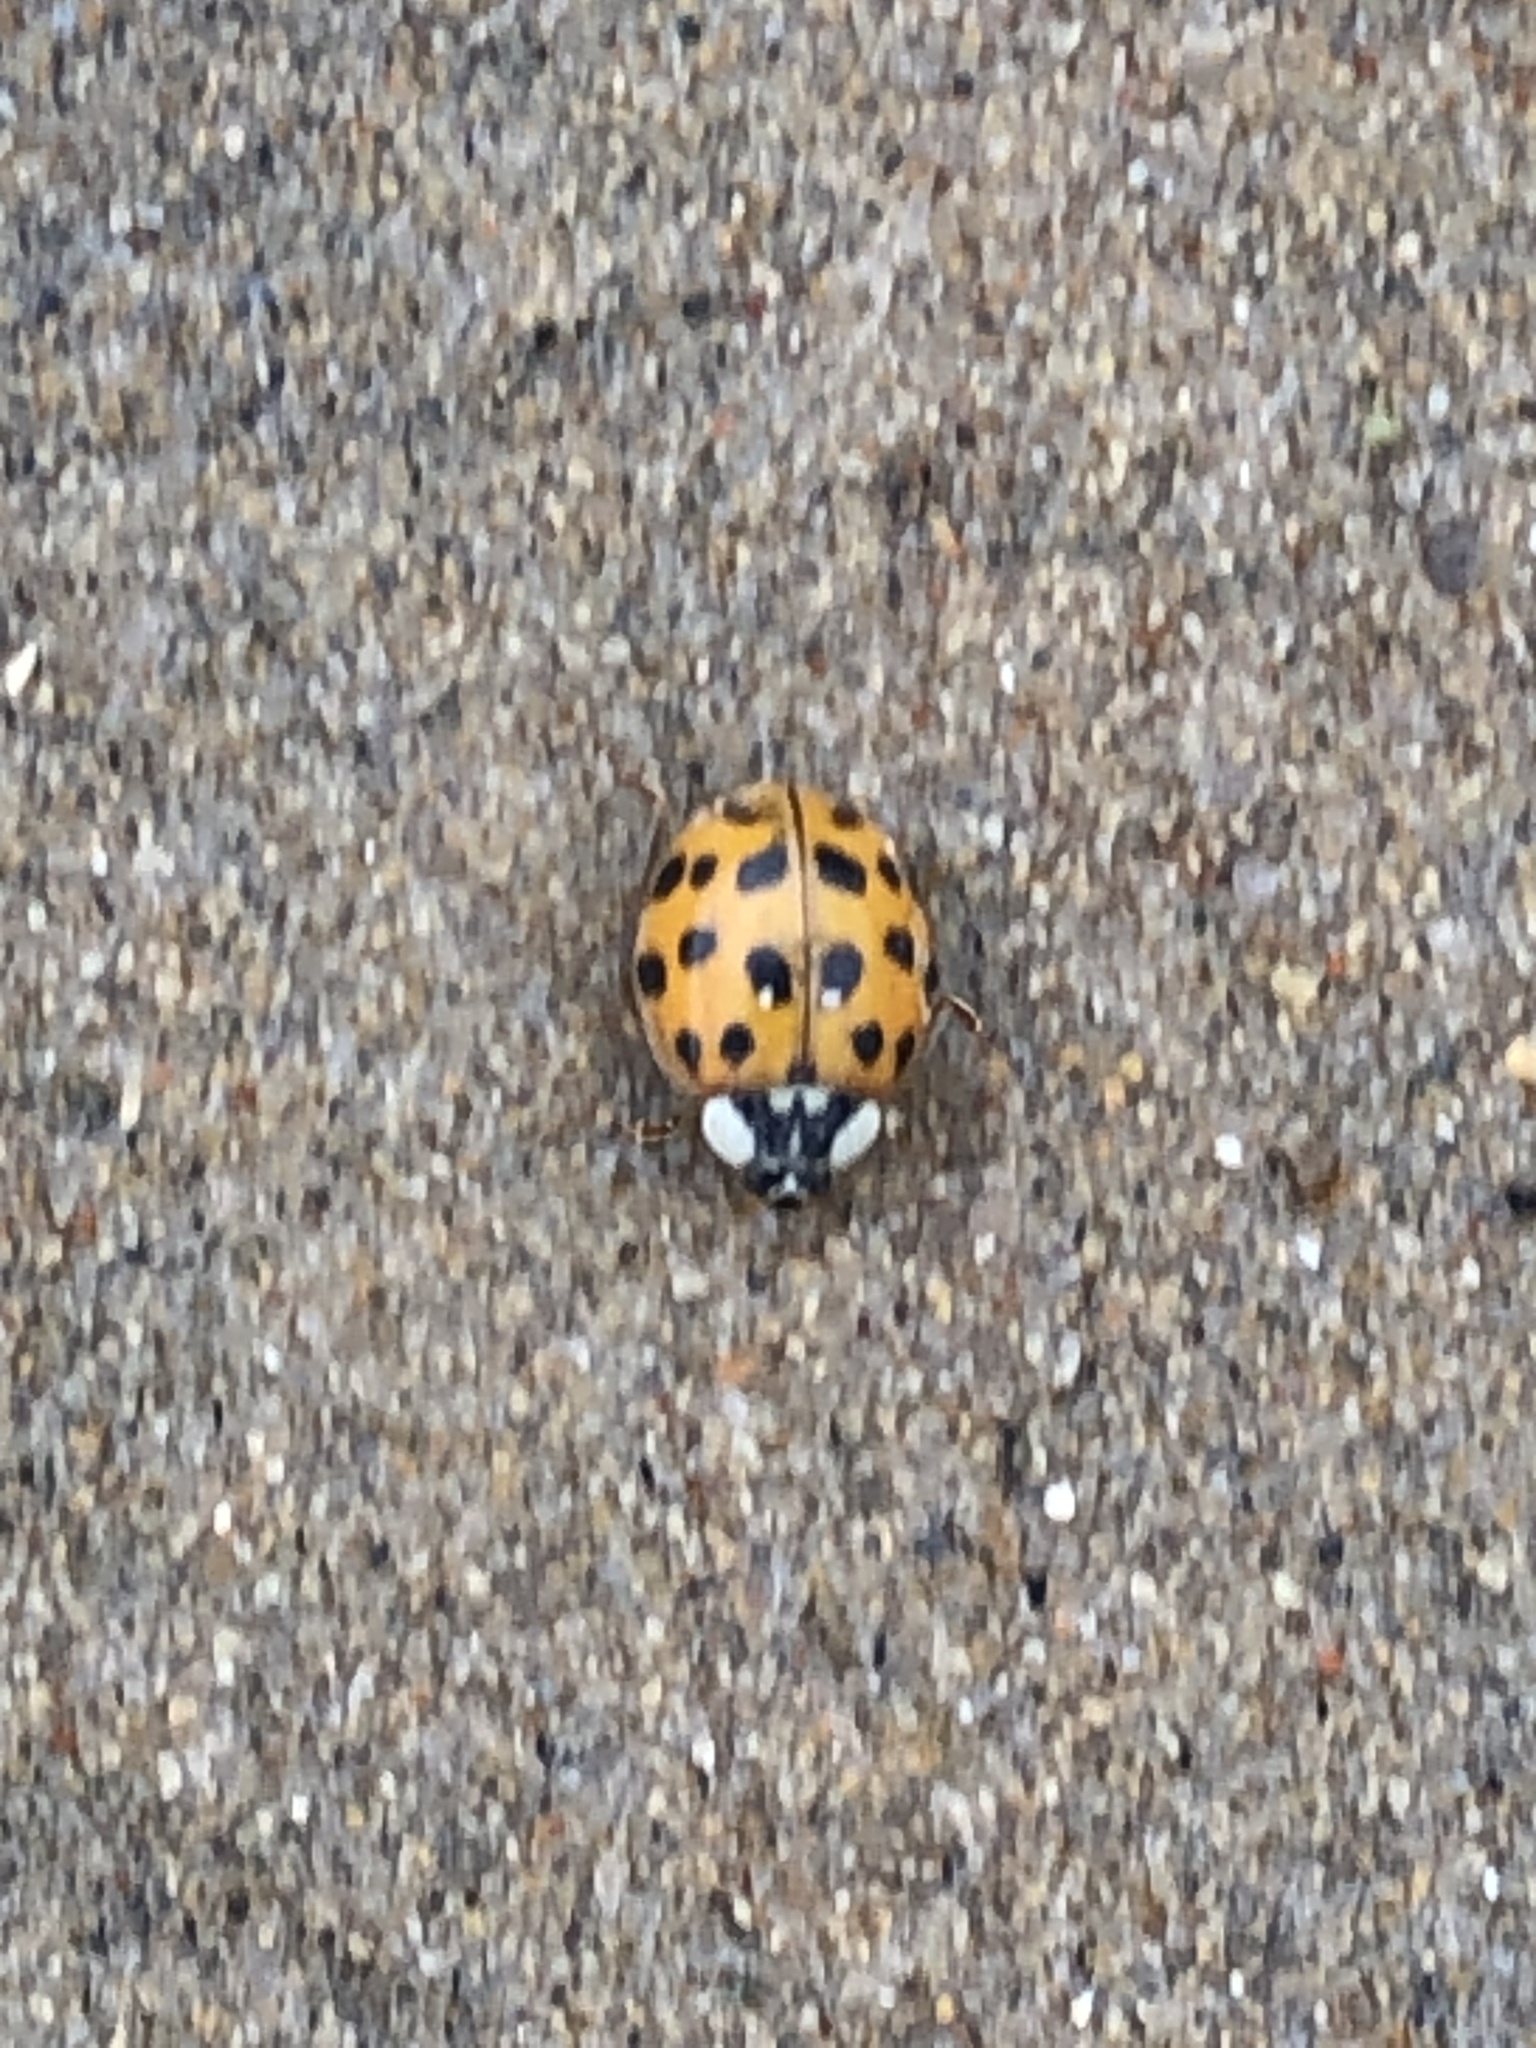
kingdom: Animalia
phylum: Arthropoda
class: Insecta
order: Coleoptera
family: Coccinellidae
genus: Harmonia
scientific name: Harmonia axyridis
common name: Harlequin ladybird
